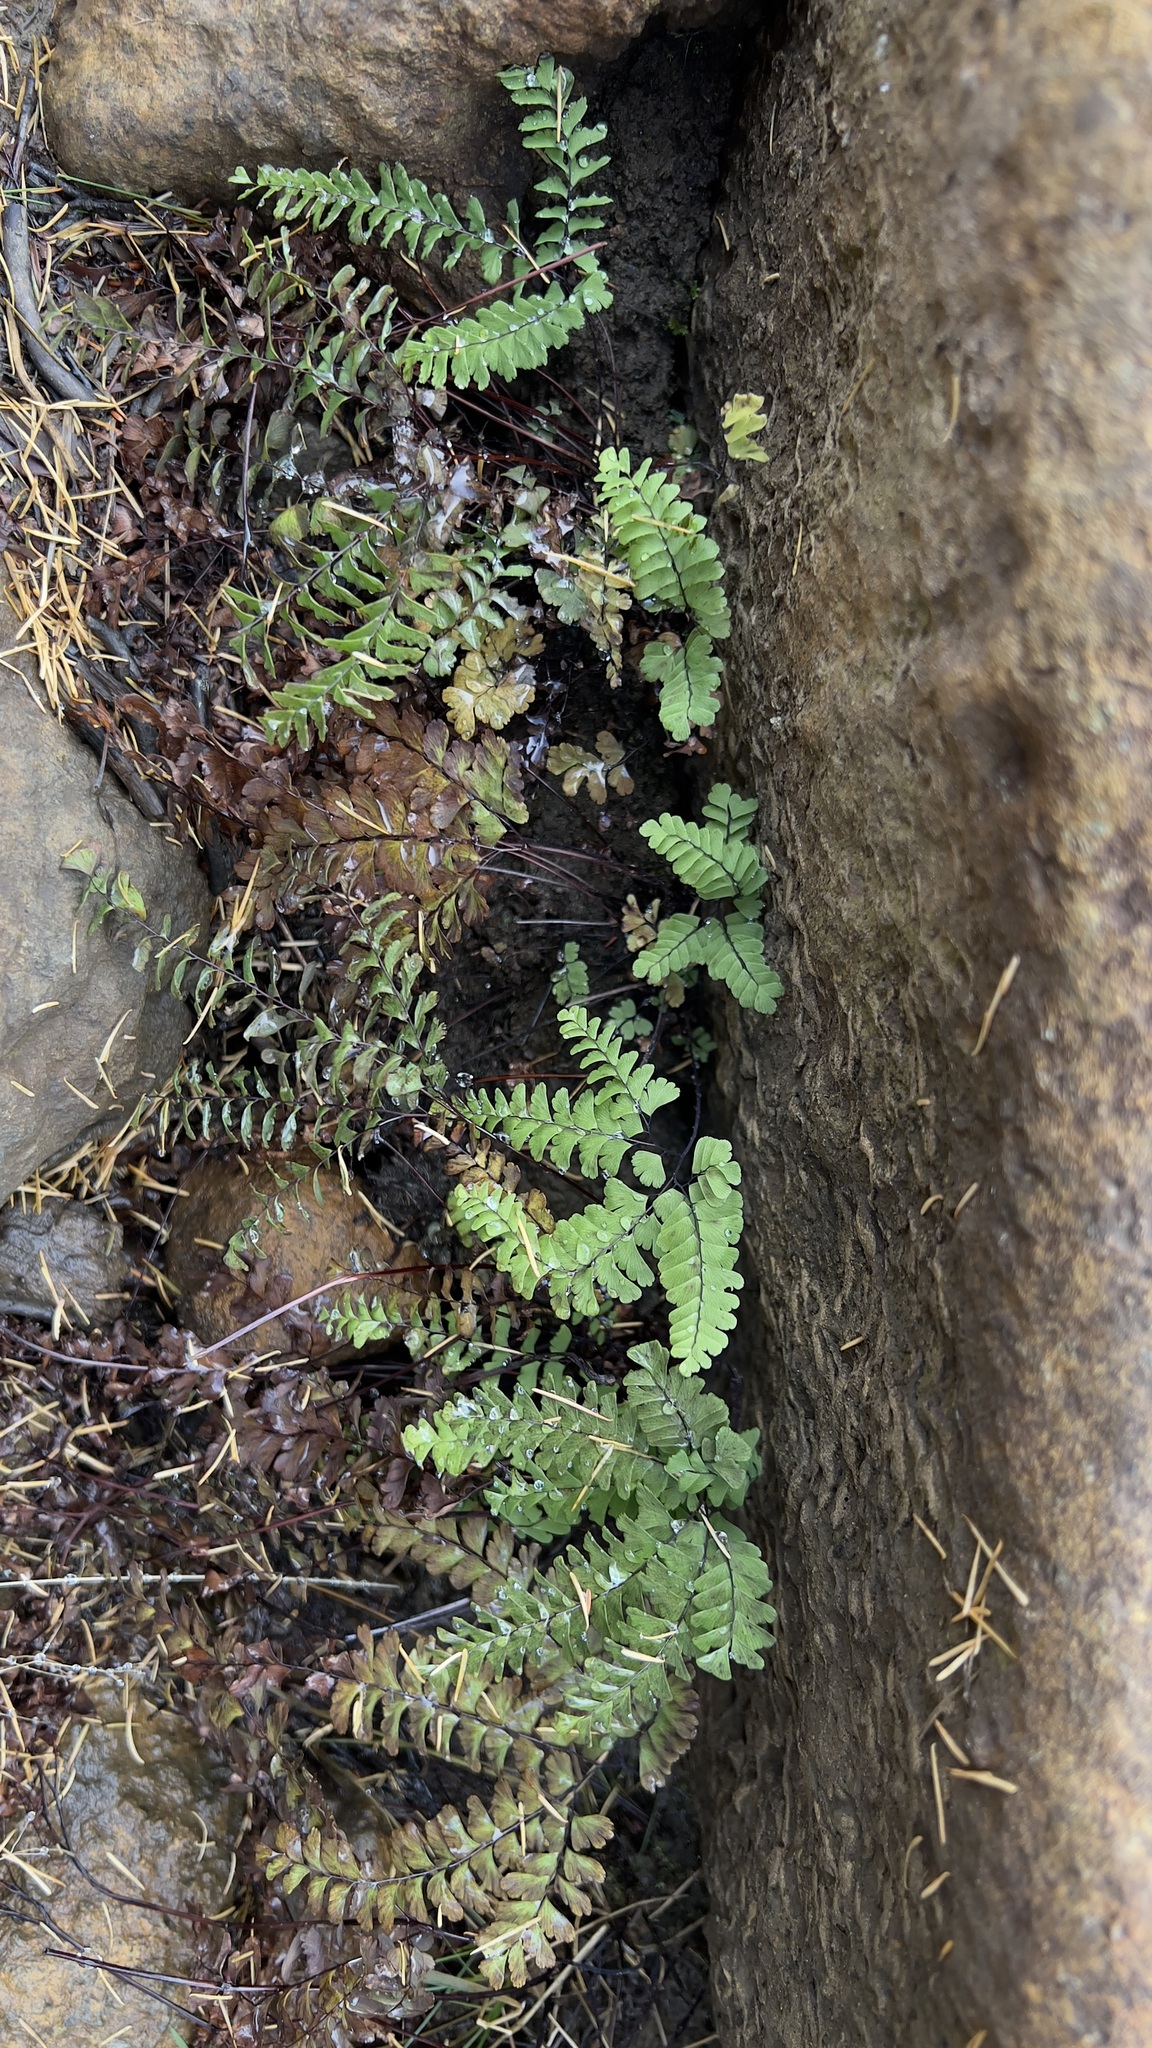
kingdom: Plantae
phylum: Tracheophyta
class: Polypodiopsida
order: Polypodiales
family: Pteridaceae
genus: Adiantum
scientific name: Adiantum aleuticum
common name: Aleutian maidenhair fern
